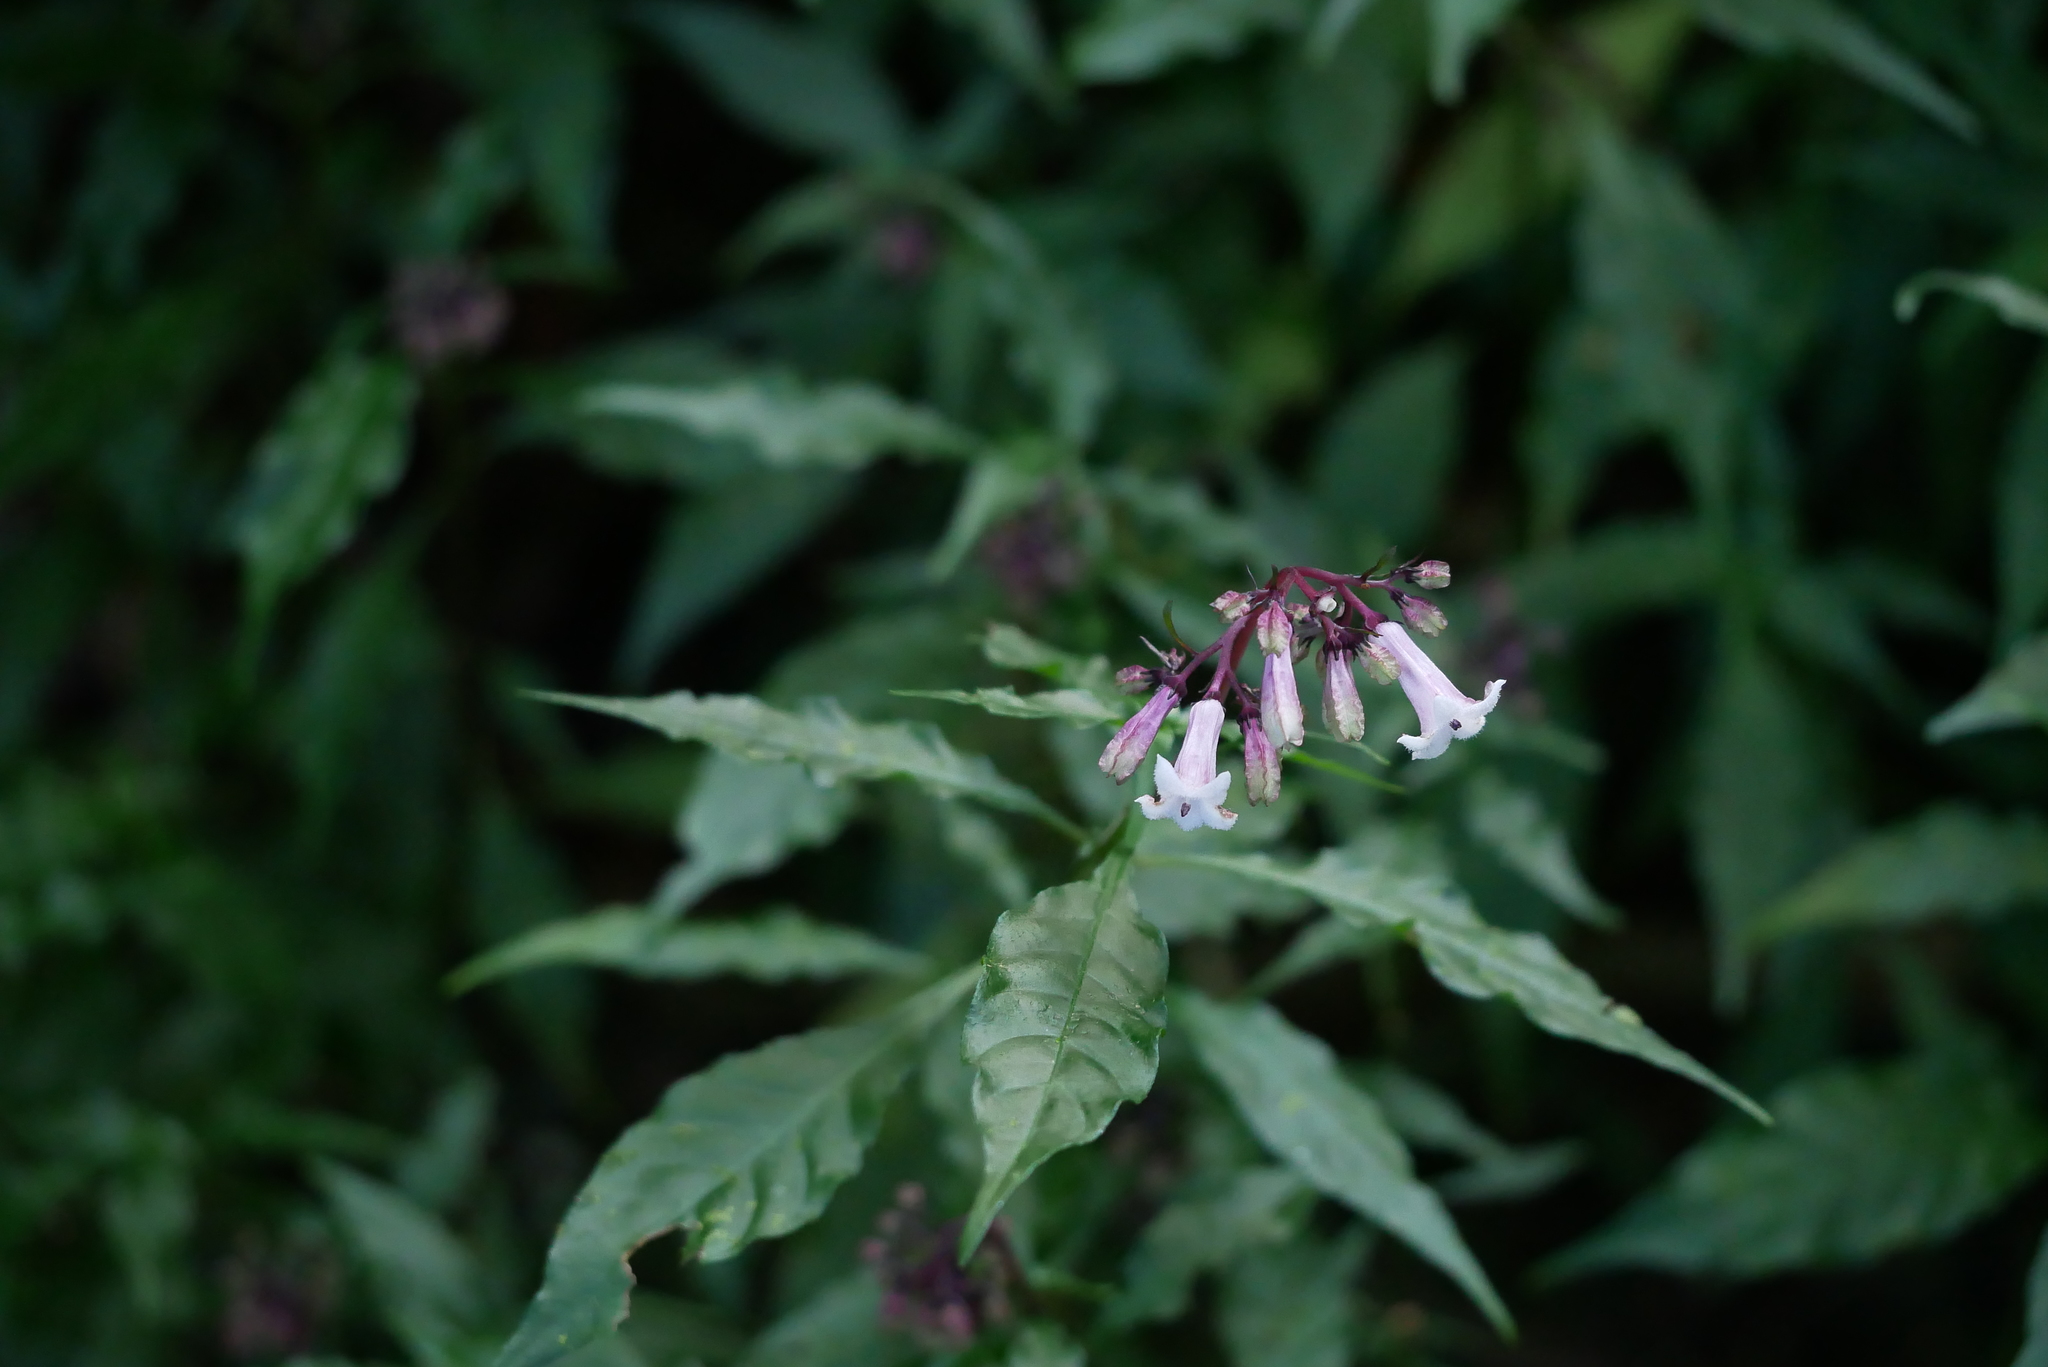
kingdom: Plantae
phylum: Tracheophyta
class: Magnoliopsida
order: Gentianales
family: Rubiaceae
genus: Ophiorrhiza
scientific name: Ophiorrhiza japonica
